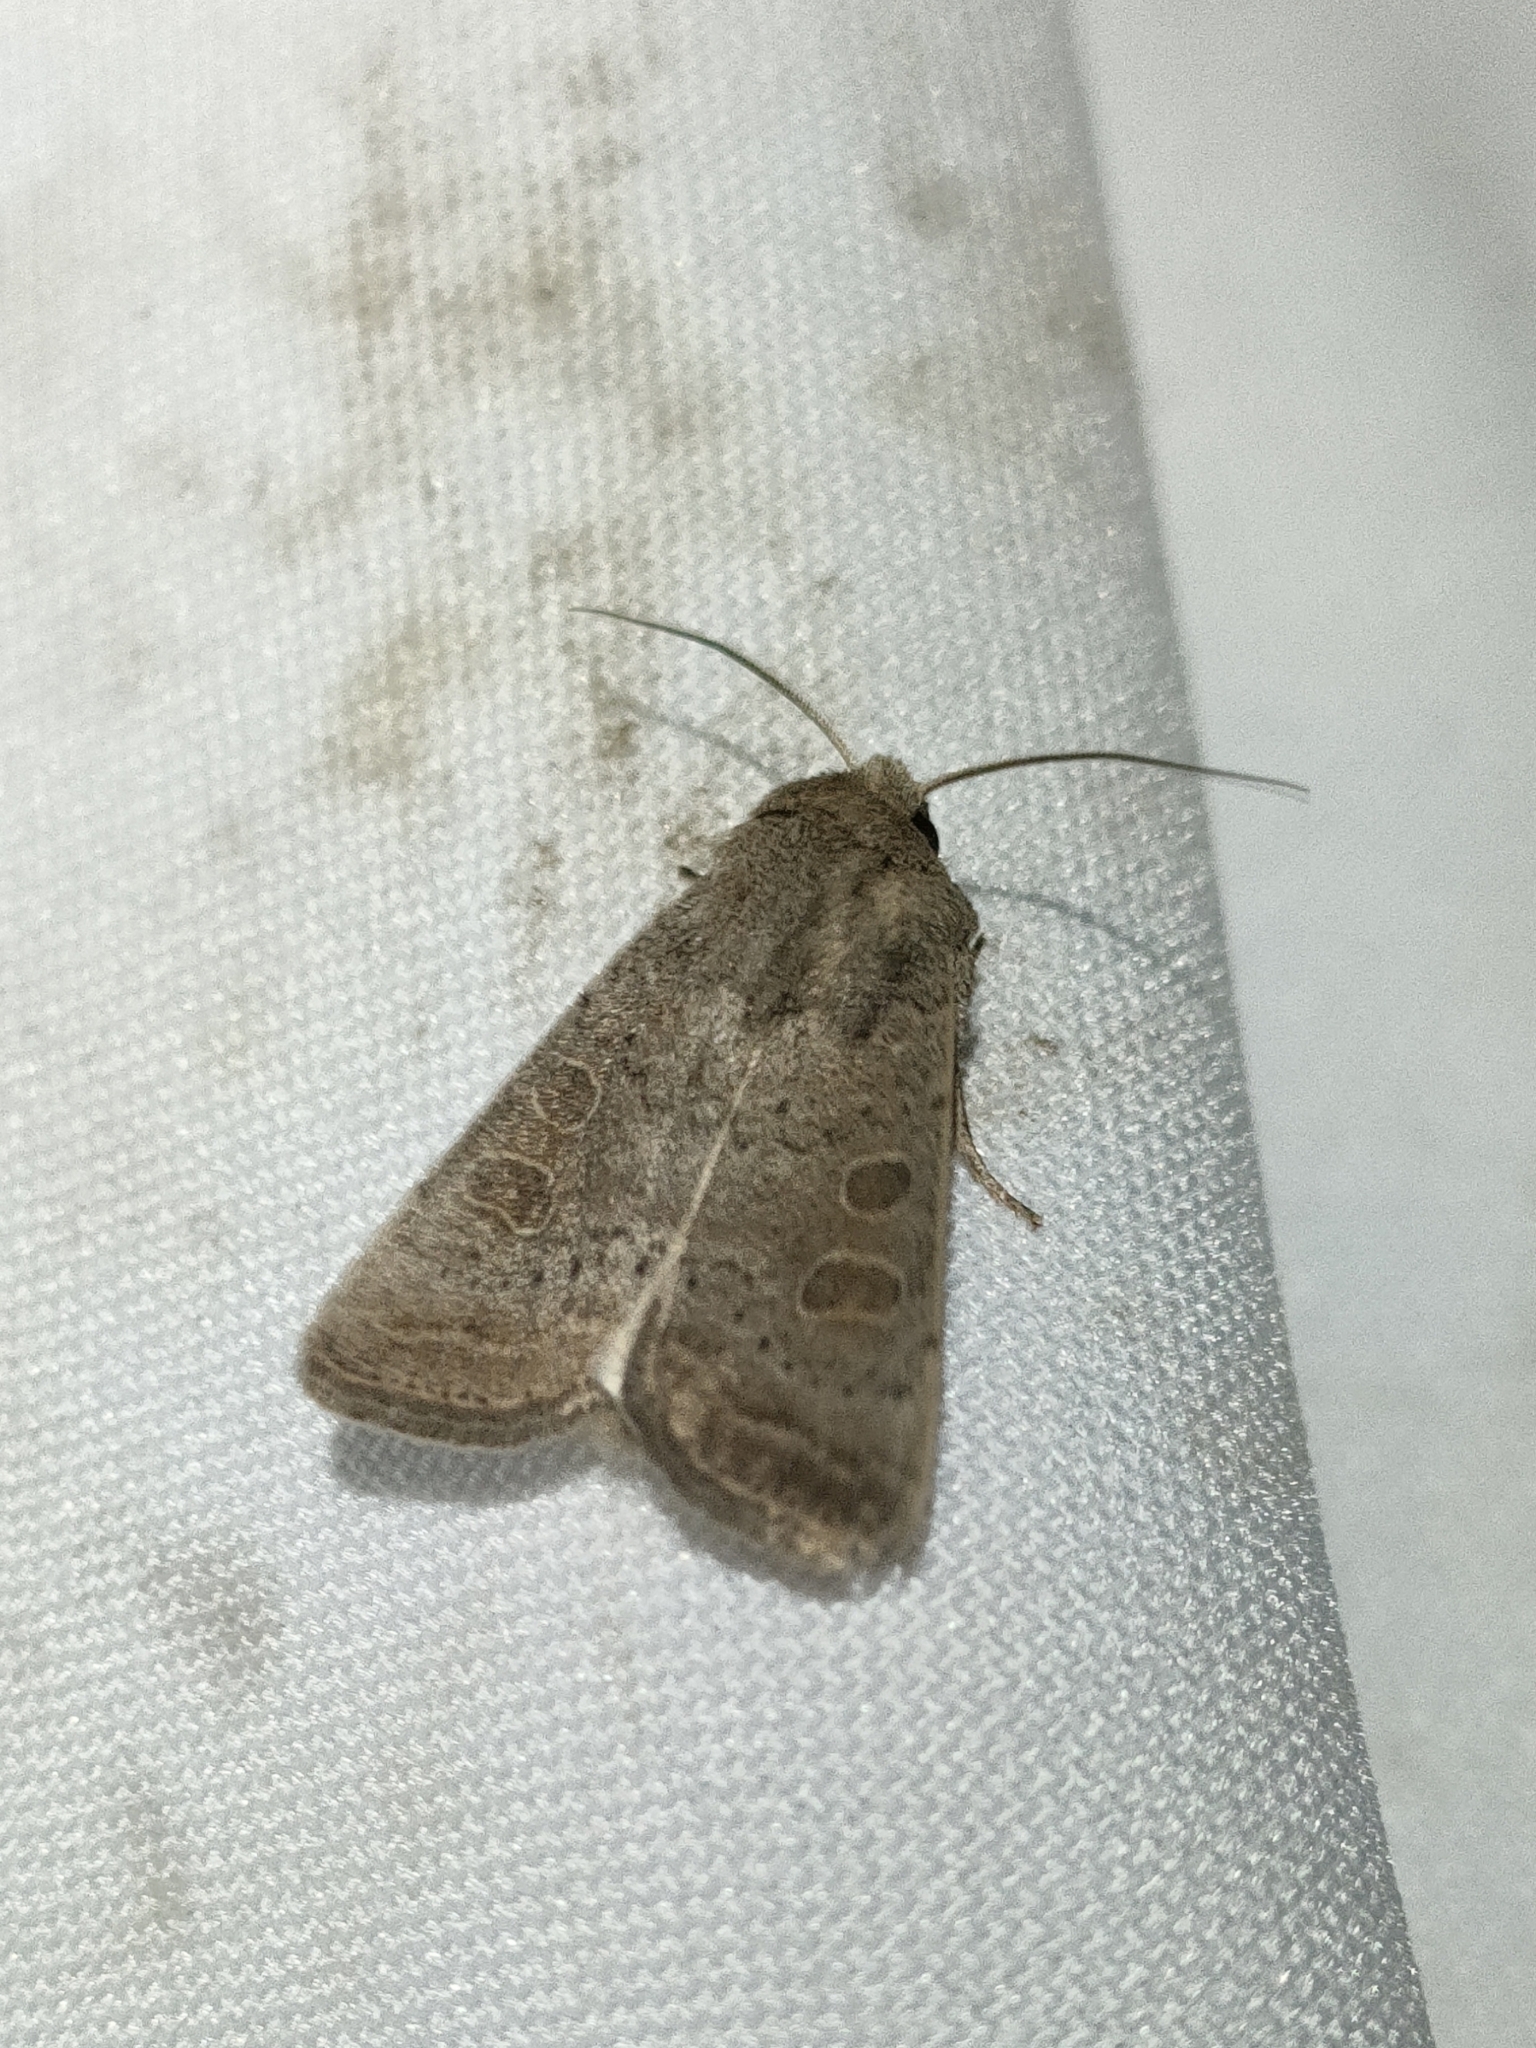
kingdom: Animalia
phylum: Arthropoda
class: Insecta
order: Lepidoptera
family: Noctuidae
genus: Hoplodrina
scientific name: Hoplodrina ambigua
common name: Vine's rustic
